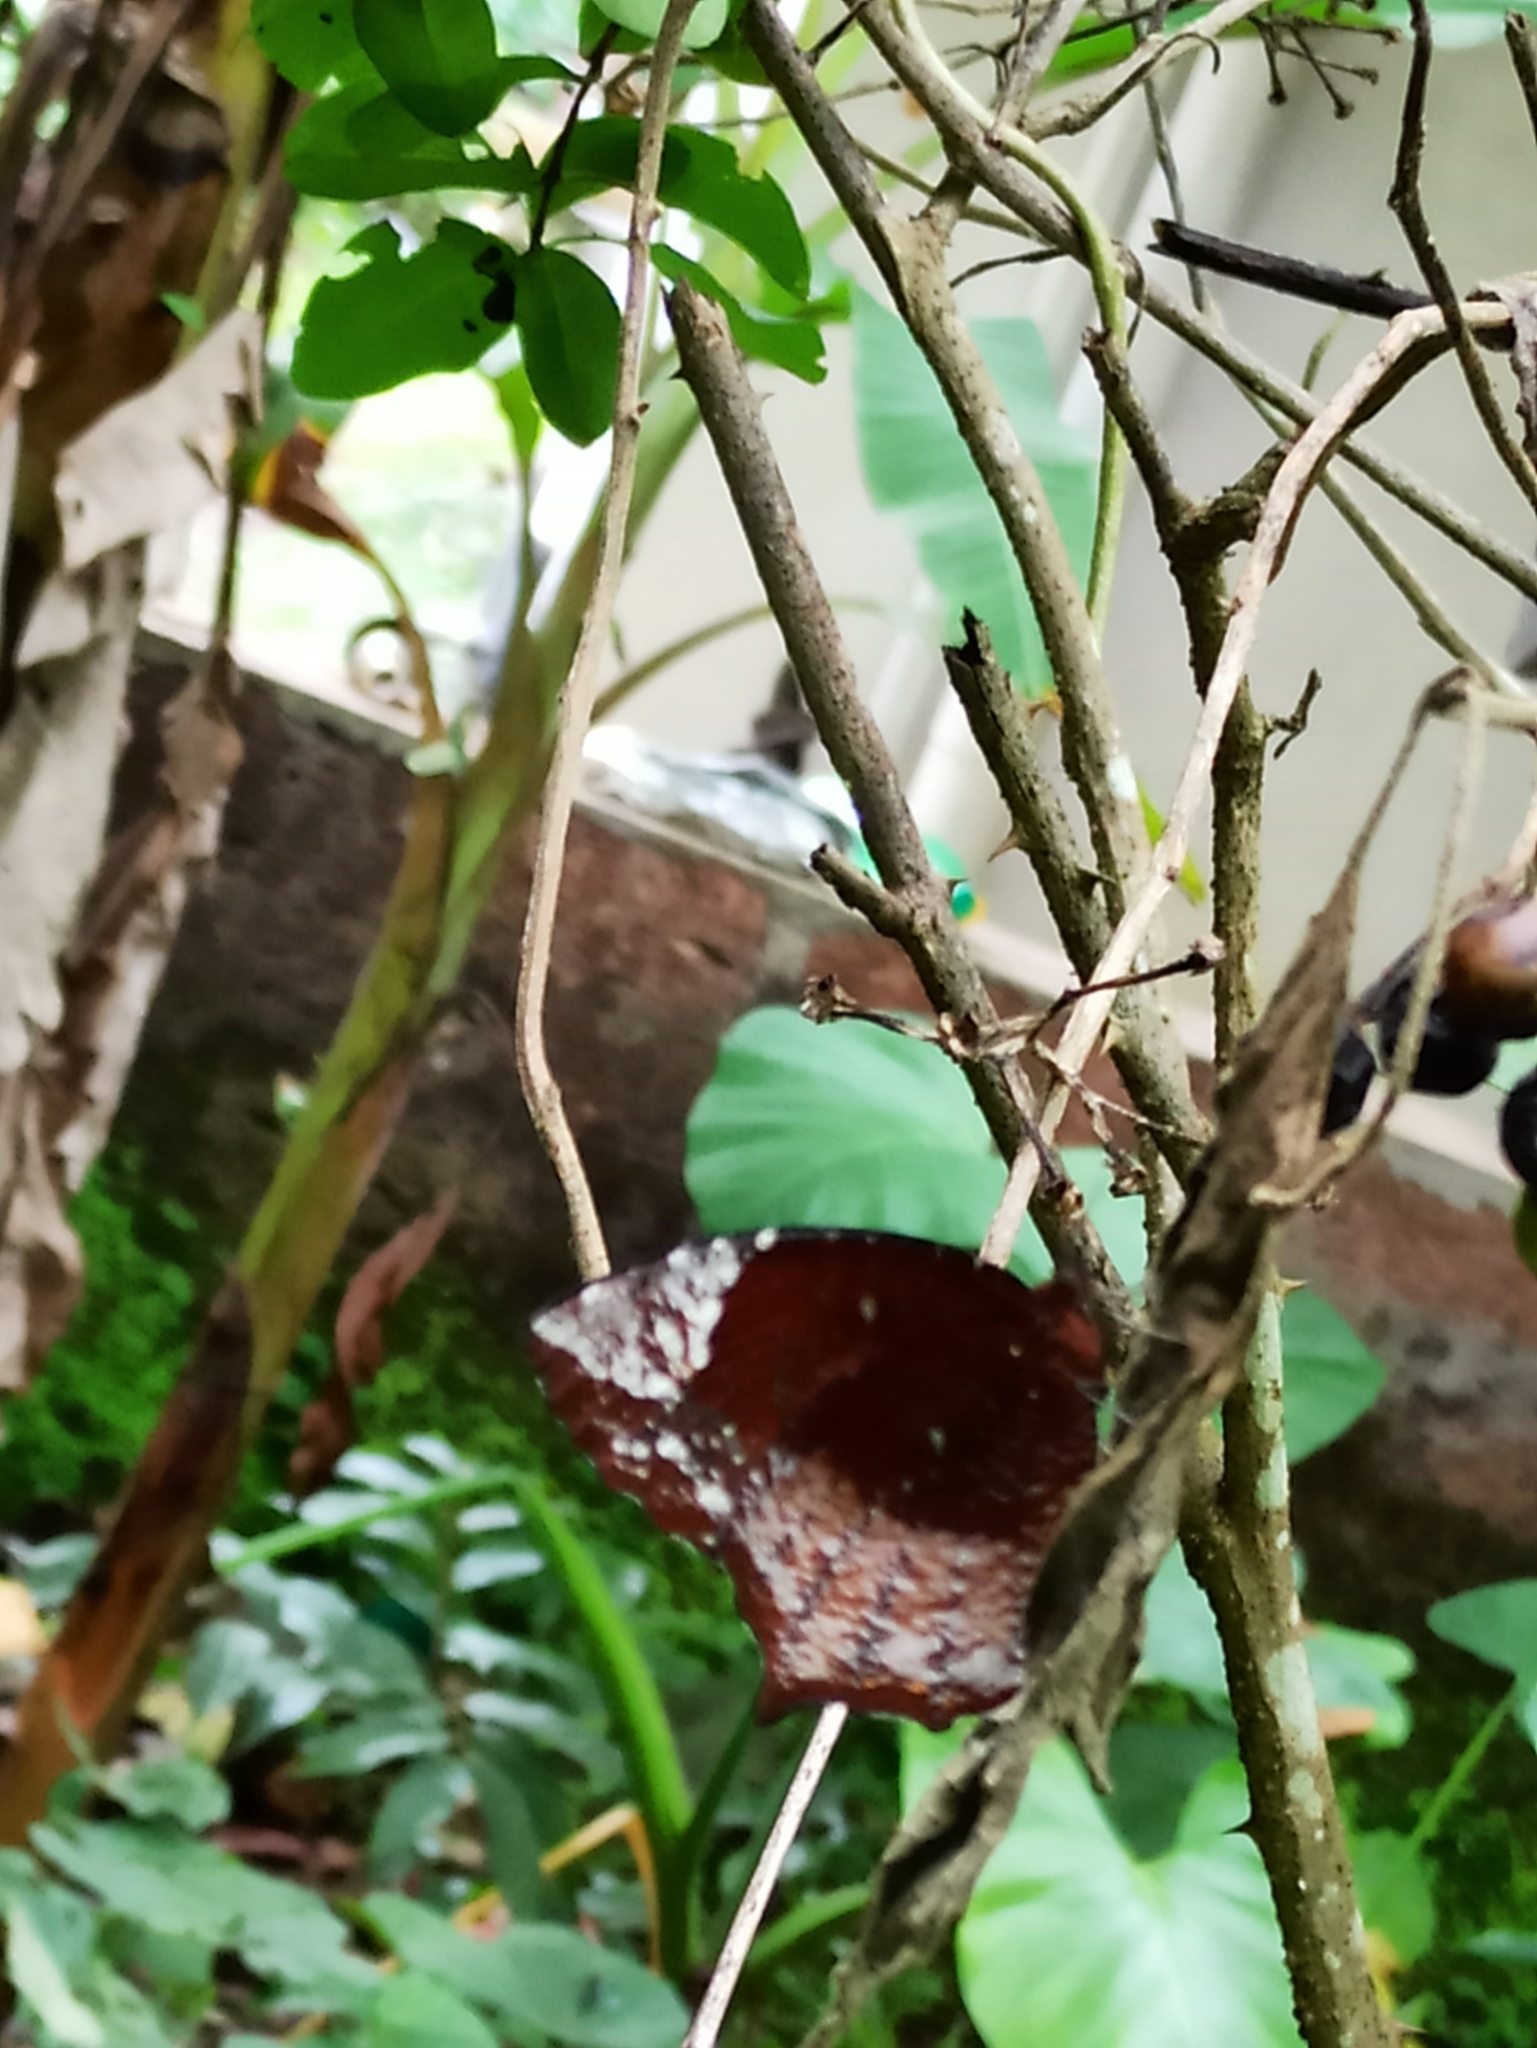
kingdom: Animalia
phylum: Arthropoda
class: Insecta
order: Lepidoptera
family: Nymphalidae
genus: Elymnias
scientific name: Elymnias caudata
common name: Tailed palmfly
